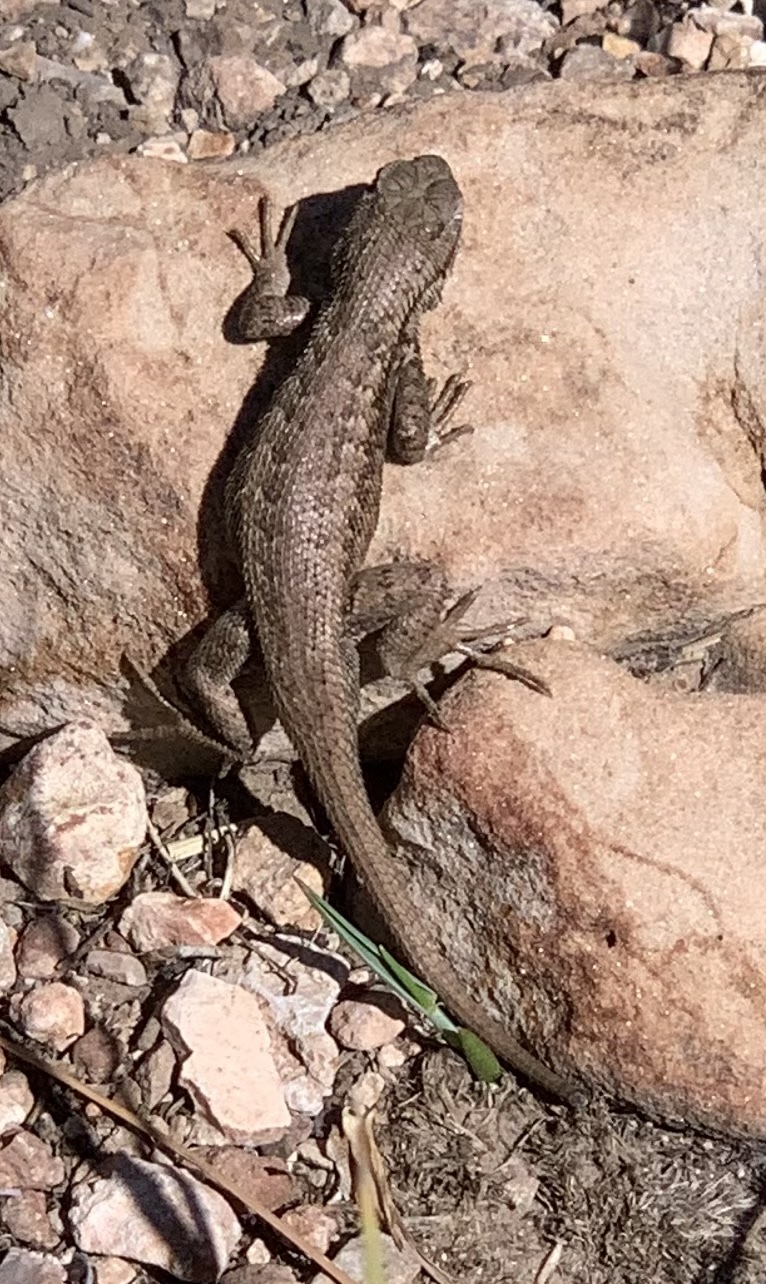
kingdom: Animalia
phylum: Chordata
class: Squamata
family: Phrynosomatidae
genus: Sceloporus
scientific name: Sceloporus tristichus
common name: Plateau fence lizard
